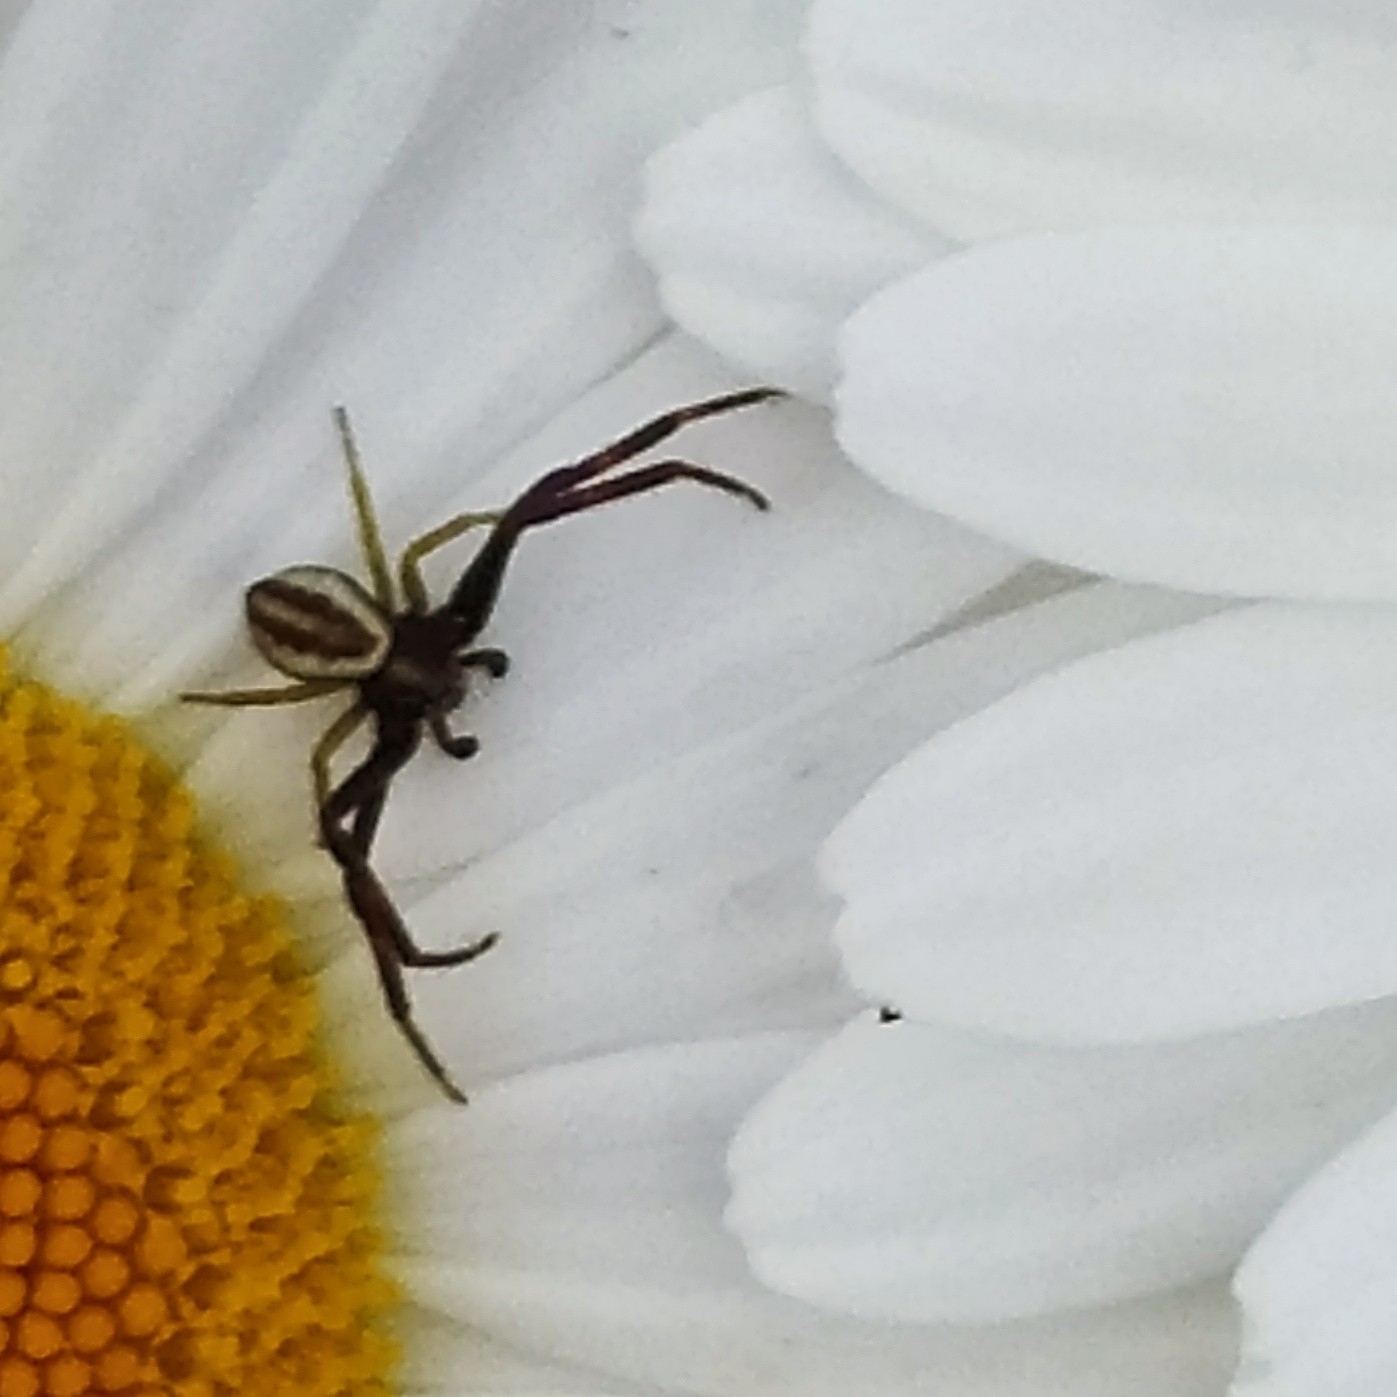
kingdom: Animalia
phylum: Arthropoda
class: Arachnida
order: Araneae
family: Thomisidae
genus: Misumena
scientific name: Misumena vatia
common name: Goldenrod crab spider
